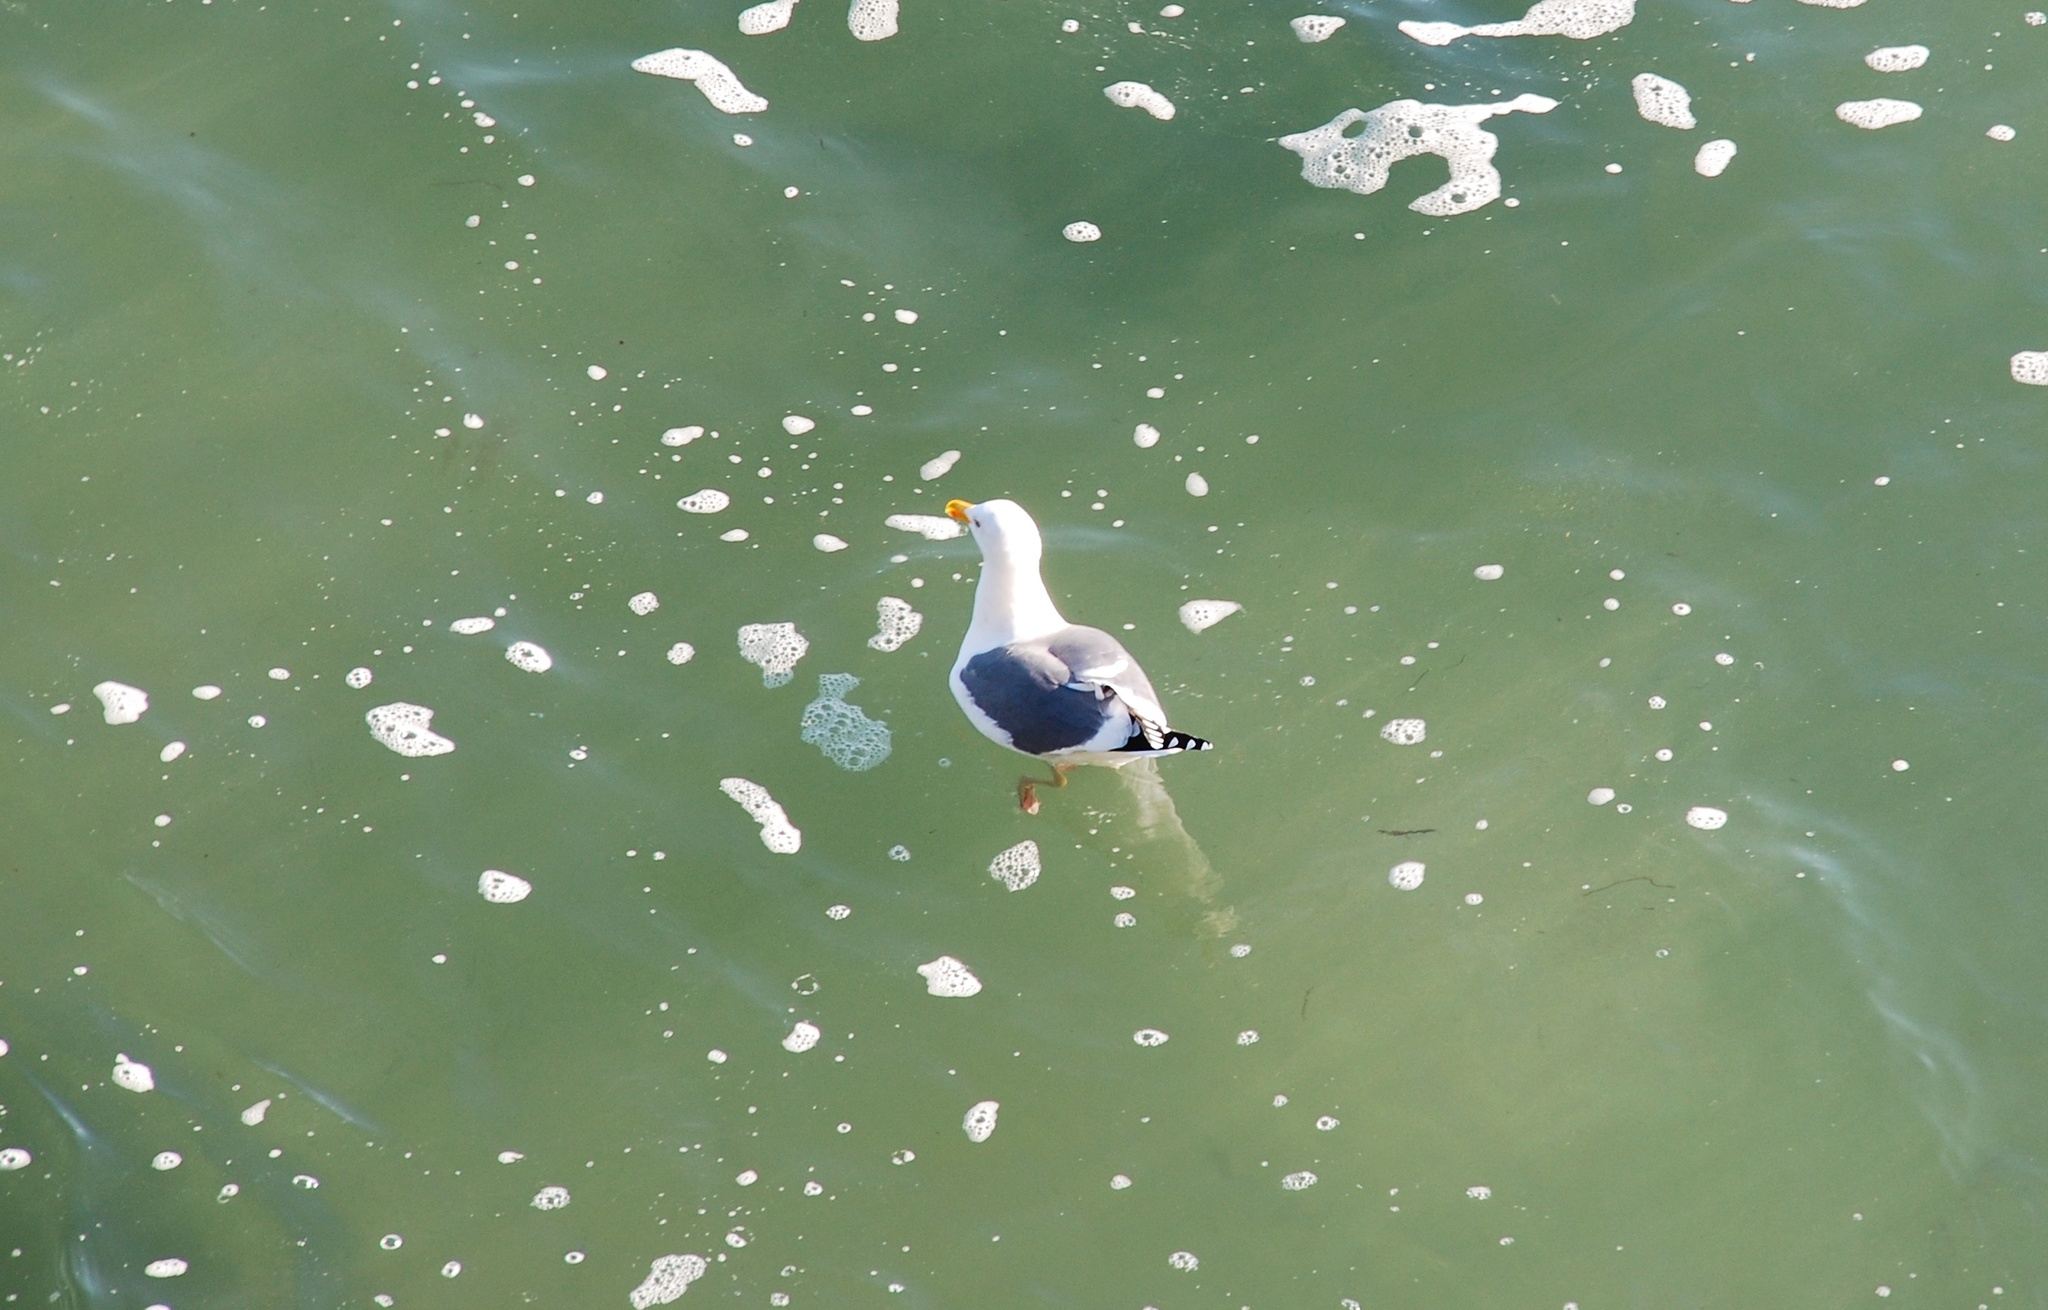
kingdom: Animalia
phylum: Chordata
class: Aves
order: Charadriiformes
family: Laridae
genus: Larus
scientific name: Larus occidentalis
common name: Western gull
